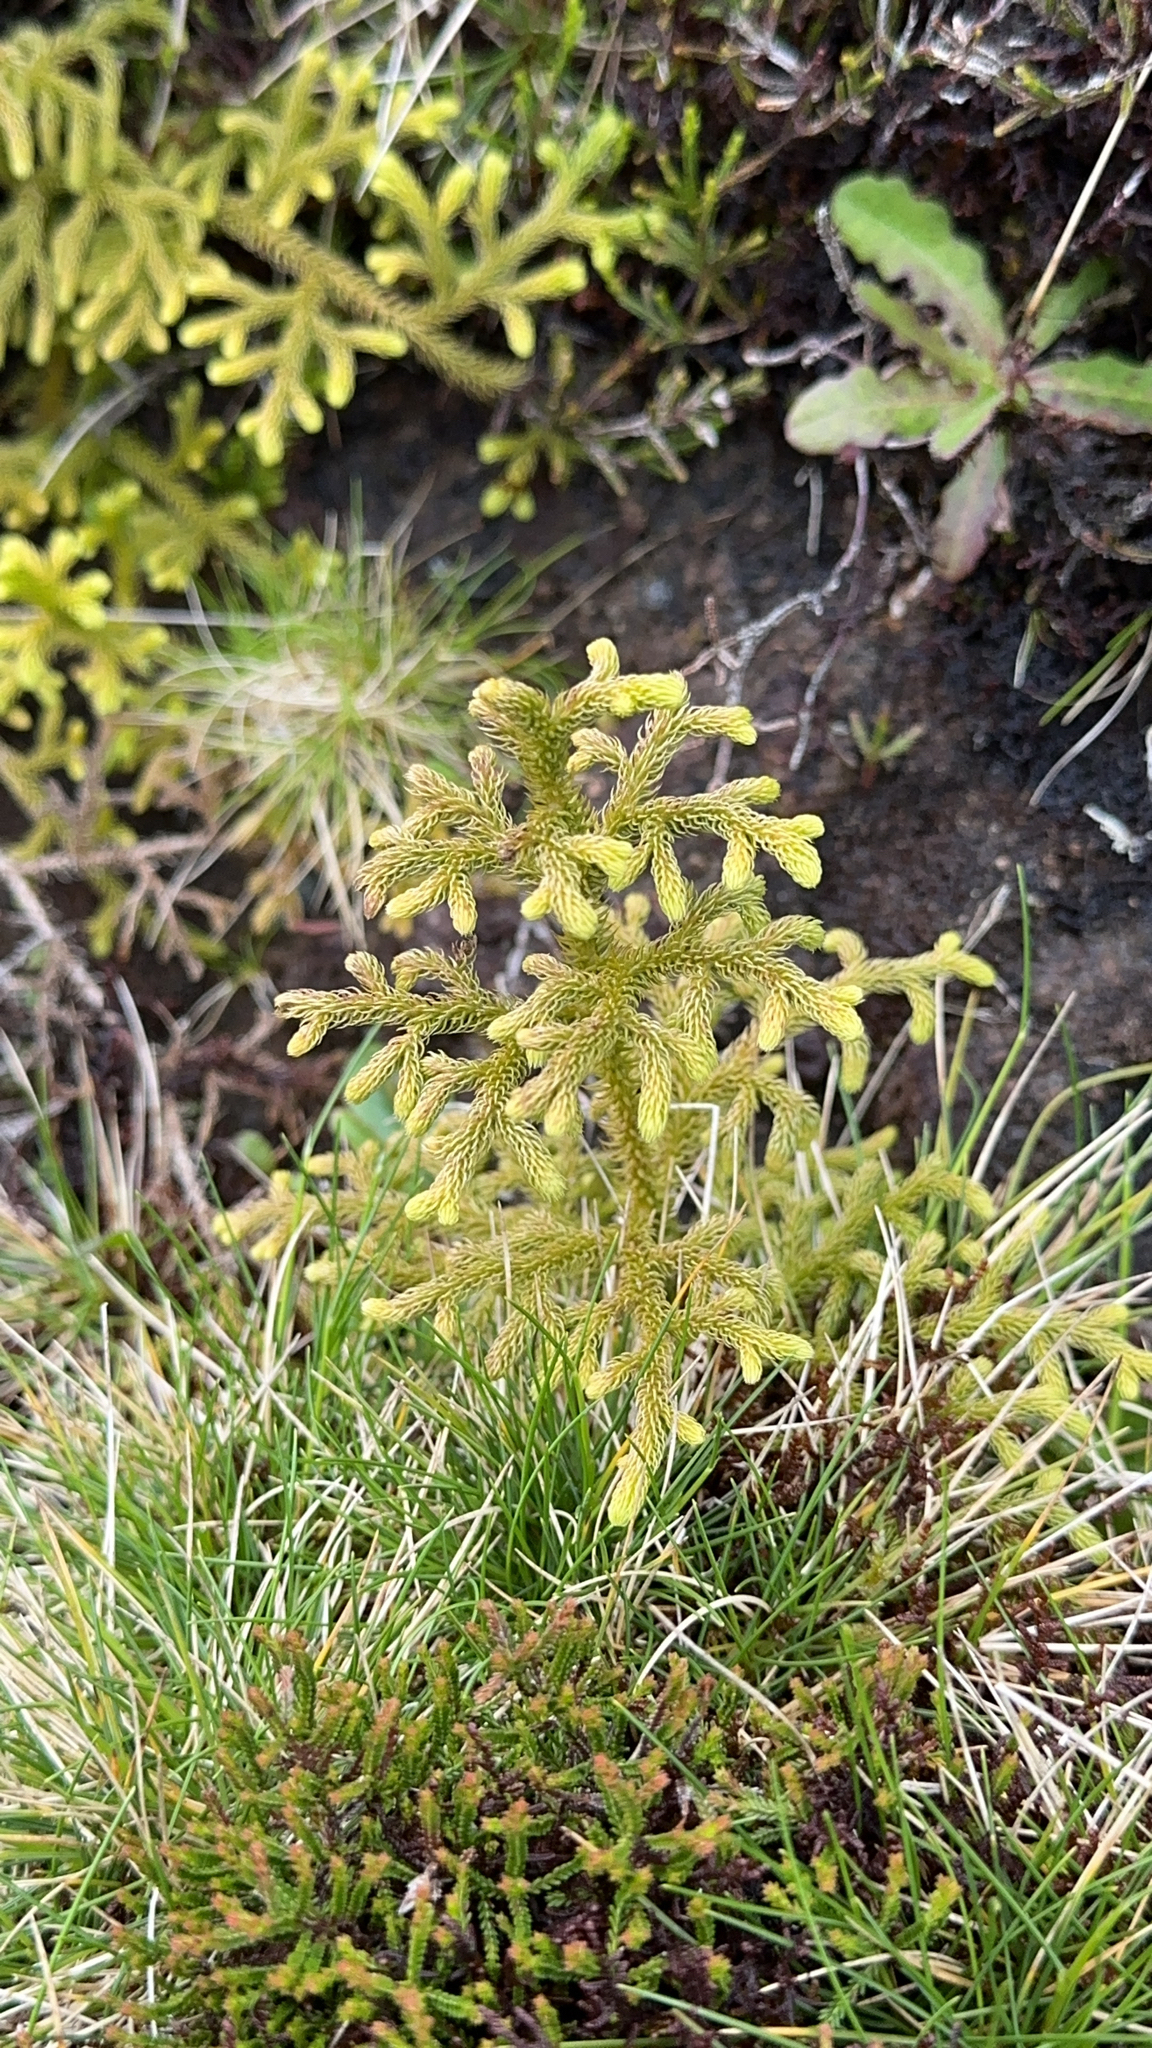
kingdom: Plantae
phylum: Tracheophyta
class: Lycopodiopsida
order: Lycopodiales
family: Lycopodiaceae
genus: Palhinhaea
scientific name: Palhinhaea cernua
